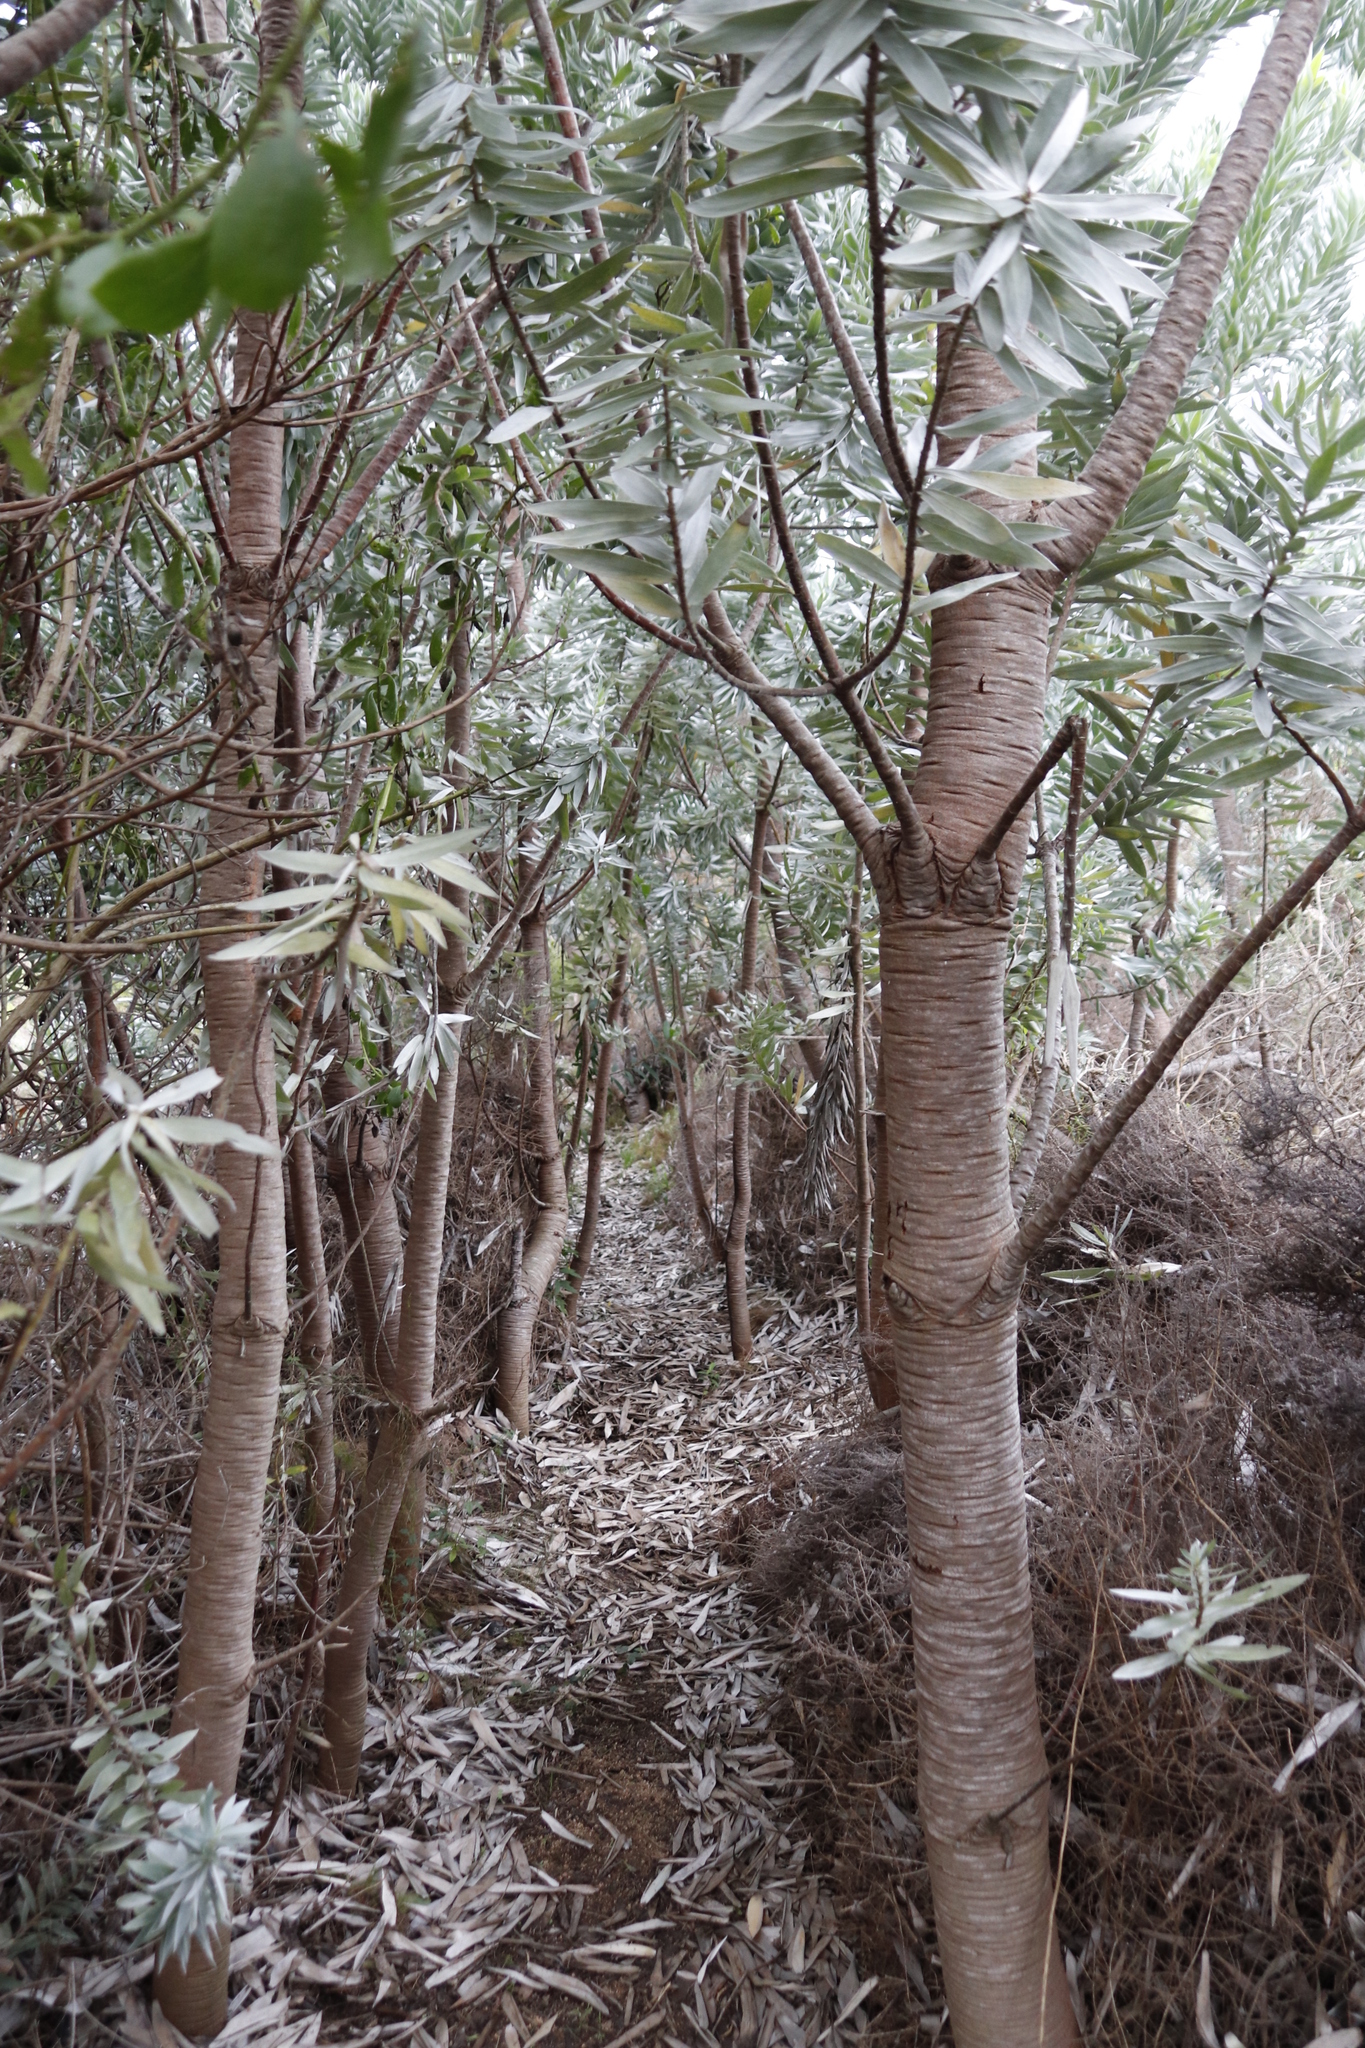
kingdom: Plantae
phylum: Tracheophyta
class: Magnoliopsida
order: Proteales
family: Proteaceae
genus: Leucadendron
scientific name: Leucadendron argenteum
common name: Cape silver tree
